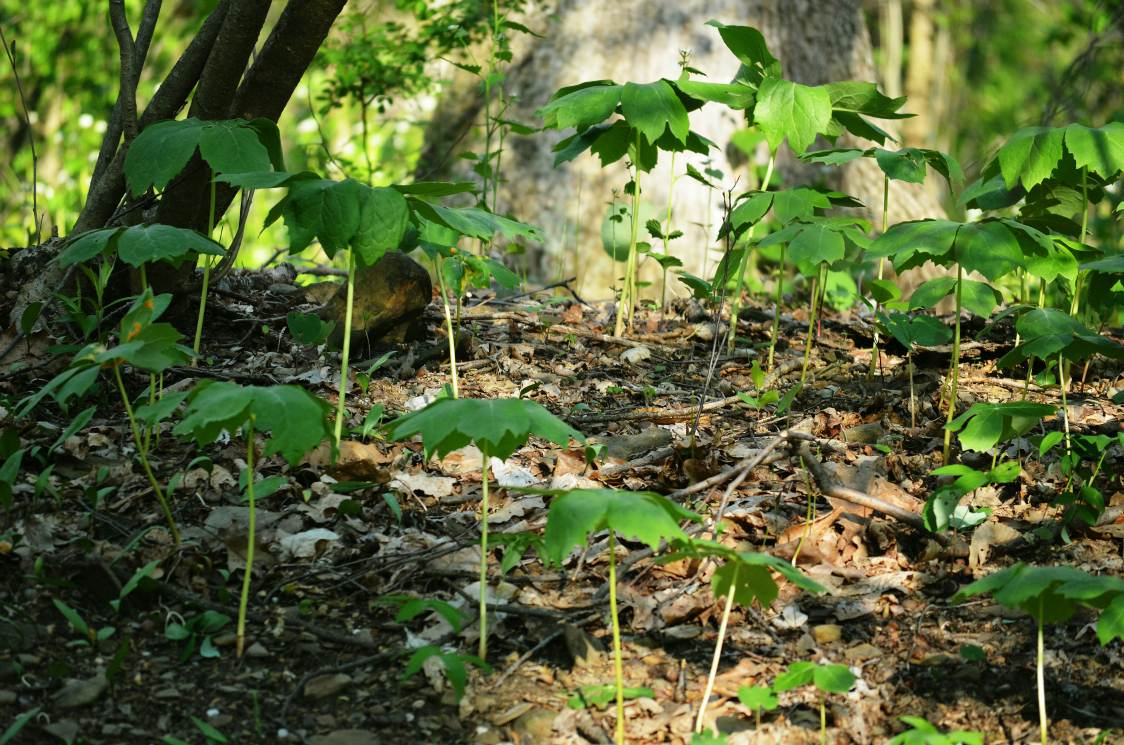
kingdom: Plantae
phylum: Tracheophyta
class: Magnoliopsida
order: Ranunculales
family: Berberidaceae
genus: Podophyllum
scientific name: Podophyllum peltatum
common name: Wild mandrake
